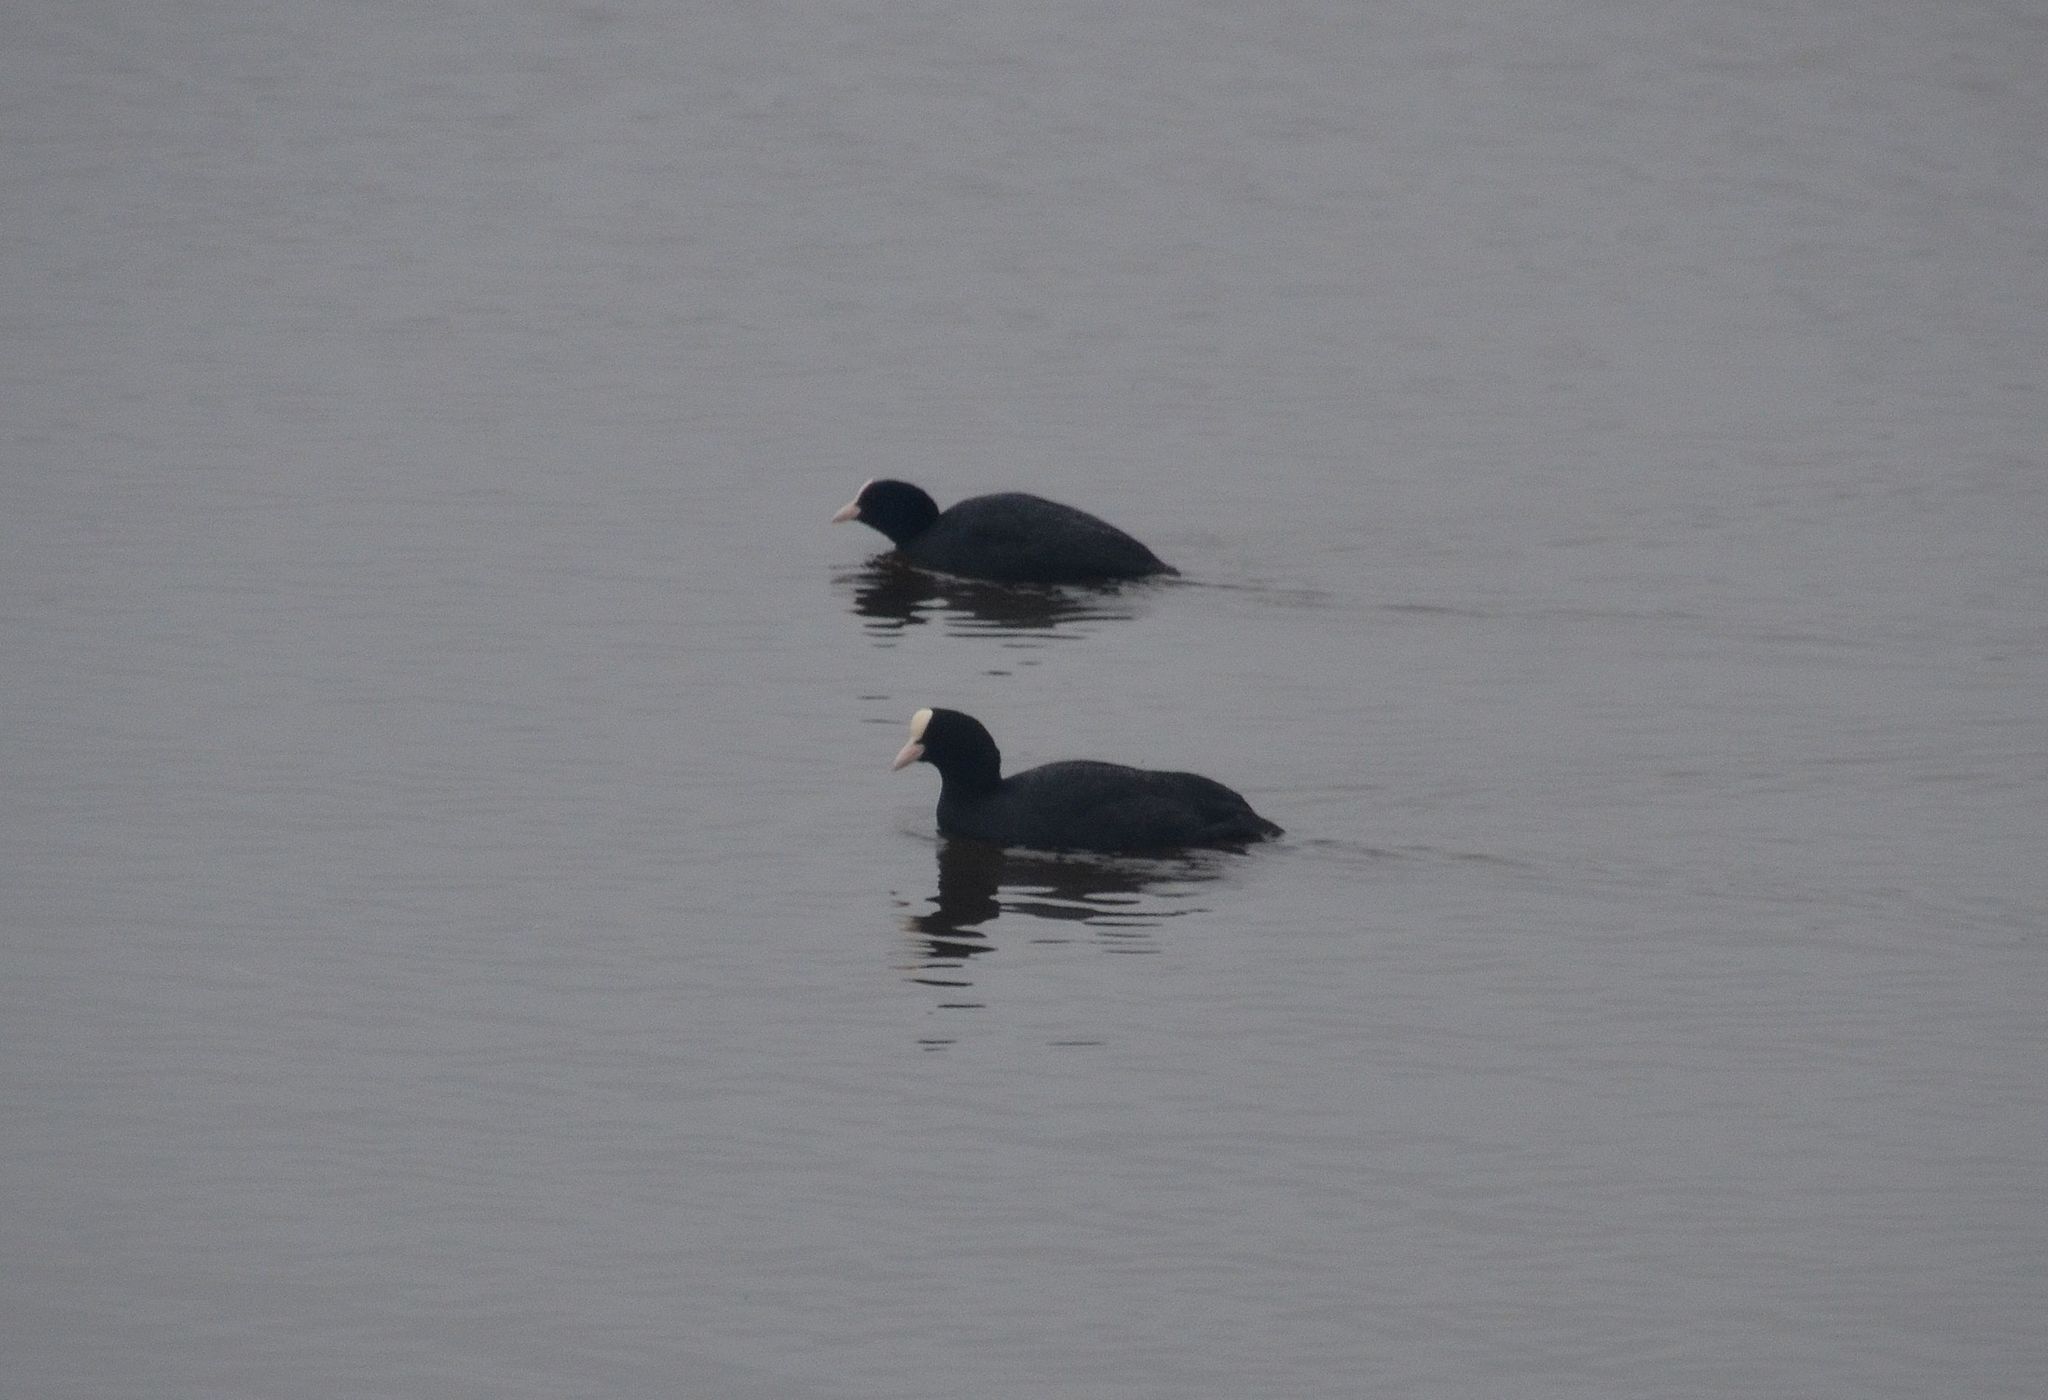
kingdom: Animalia
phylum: Chordata
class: Aves
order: Gruiformes
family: Rallidae
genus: Fulica
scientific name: Fulica atra
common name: Eurasian coot
